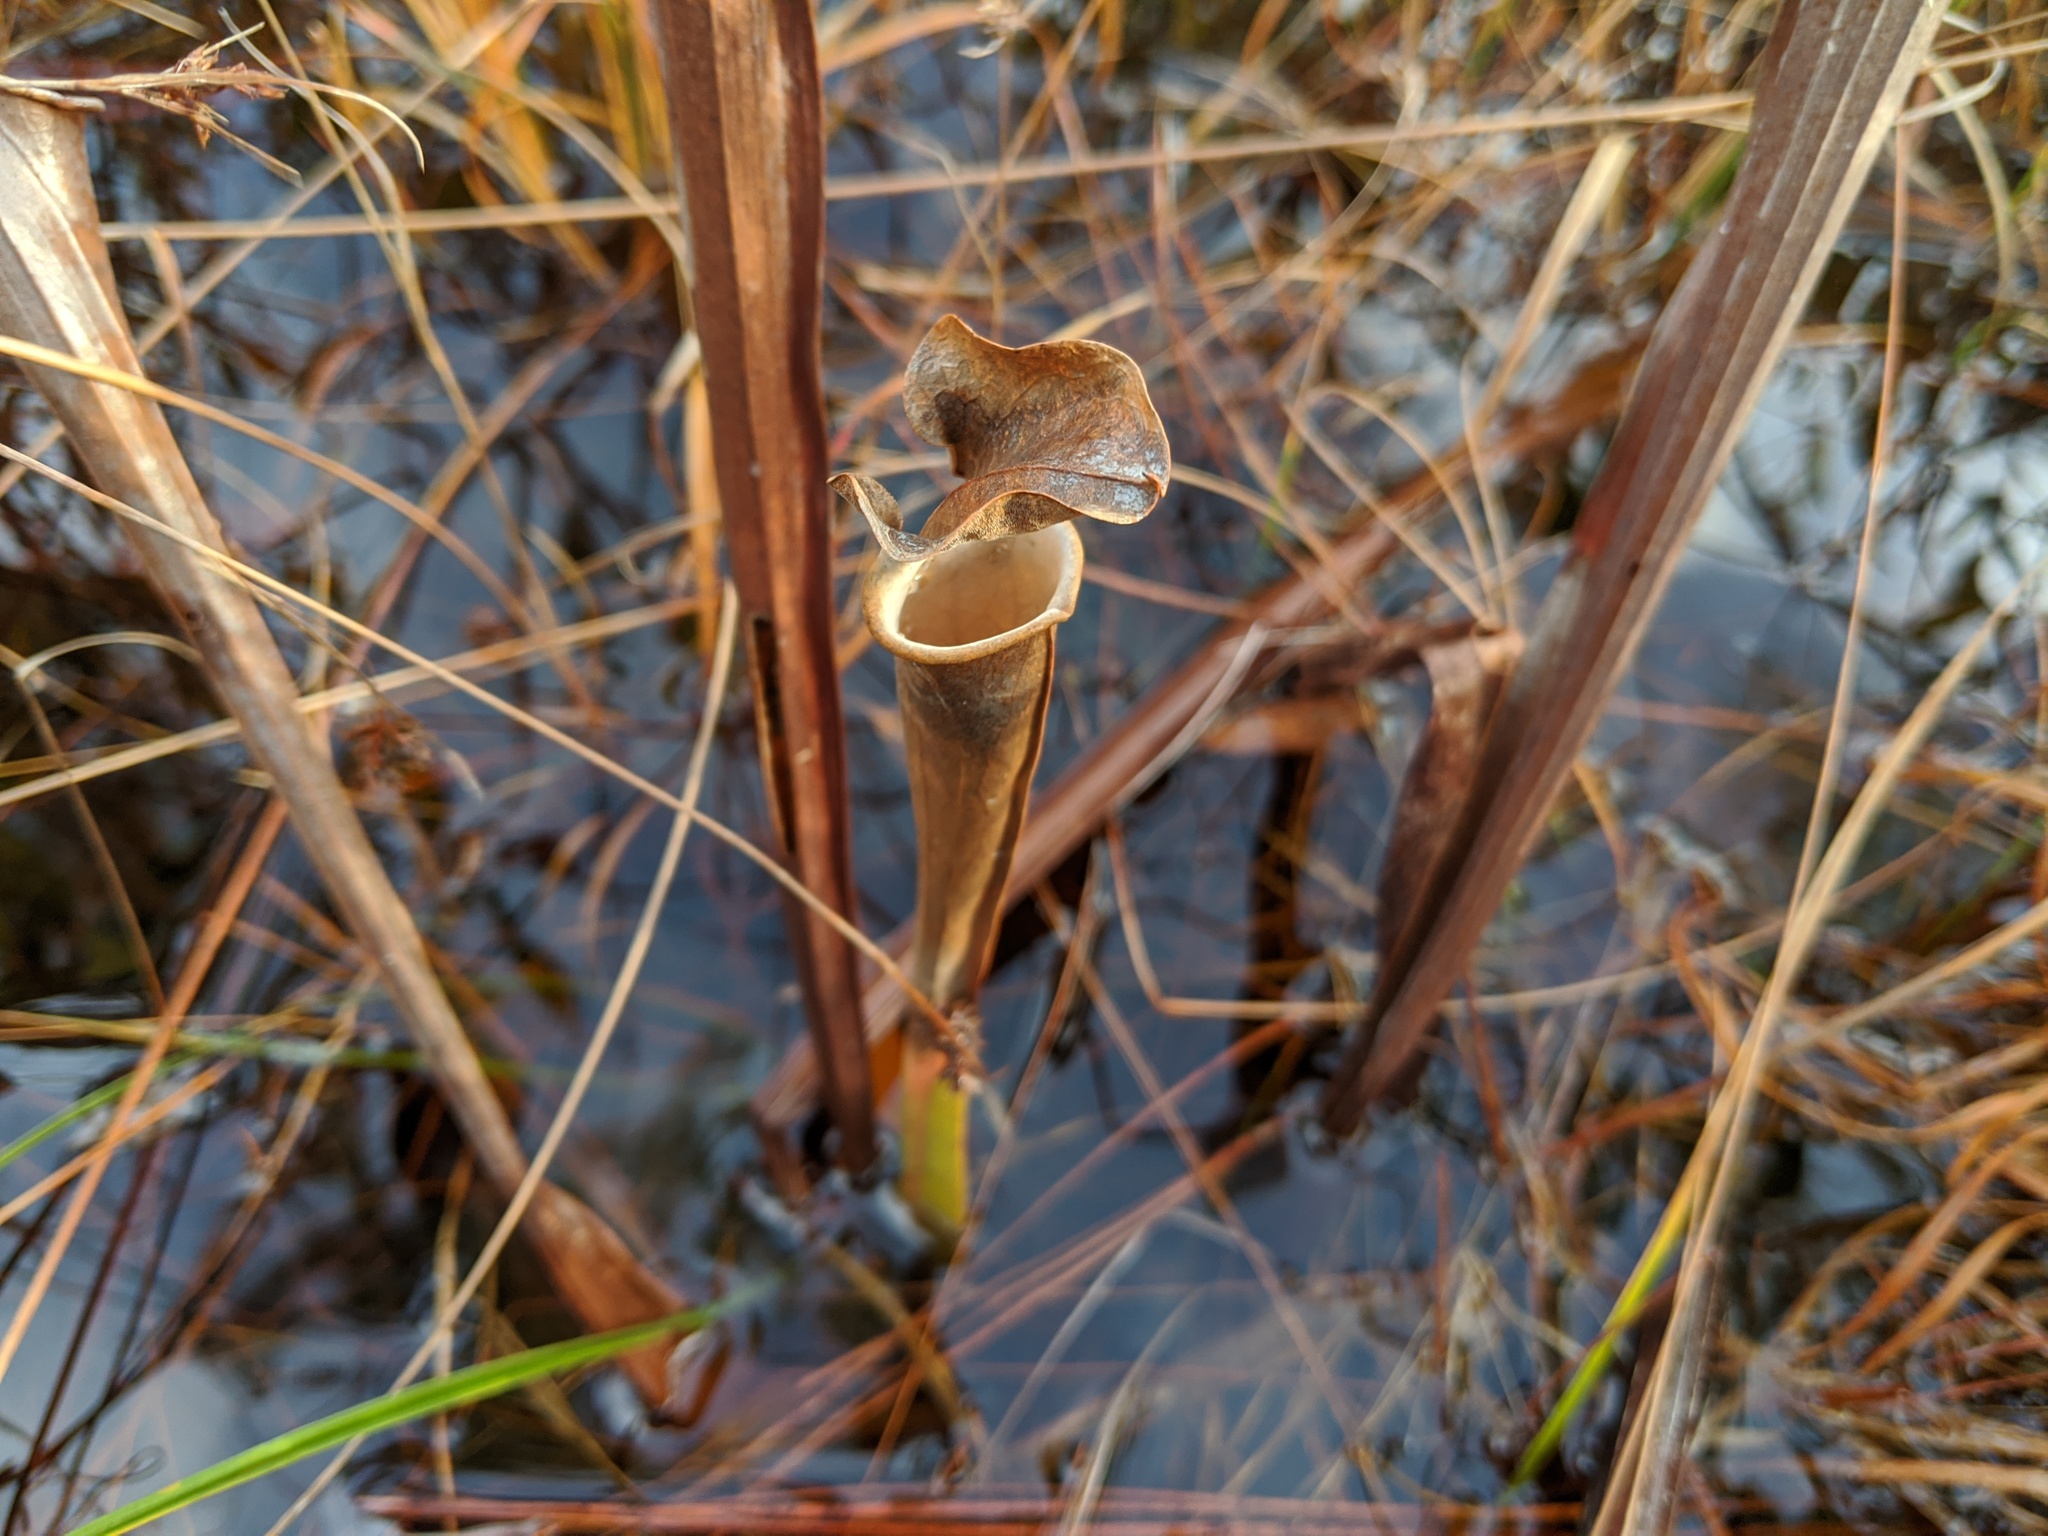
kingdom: Plantae
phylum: Tracheophyta
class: Magnoliopsida
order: Ericales
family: Sarraceniaceae
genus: Sarracenia
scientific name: Sarracenia flava
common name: Trumpets
